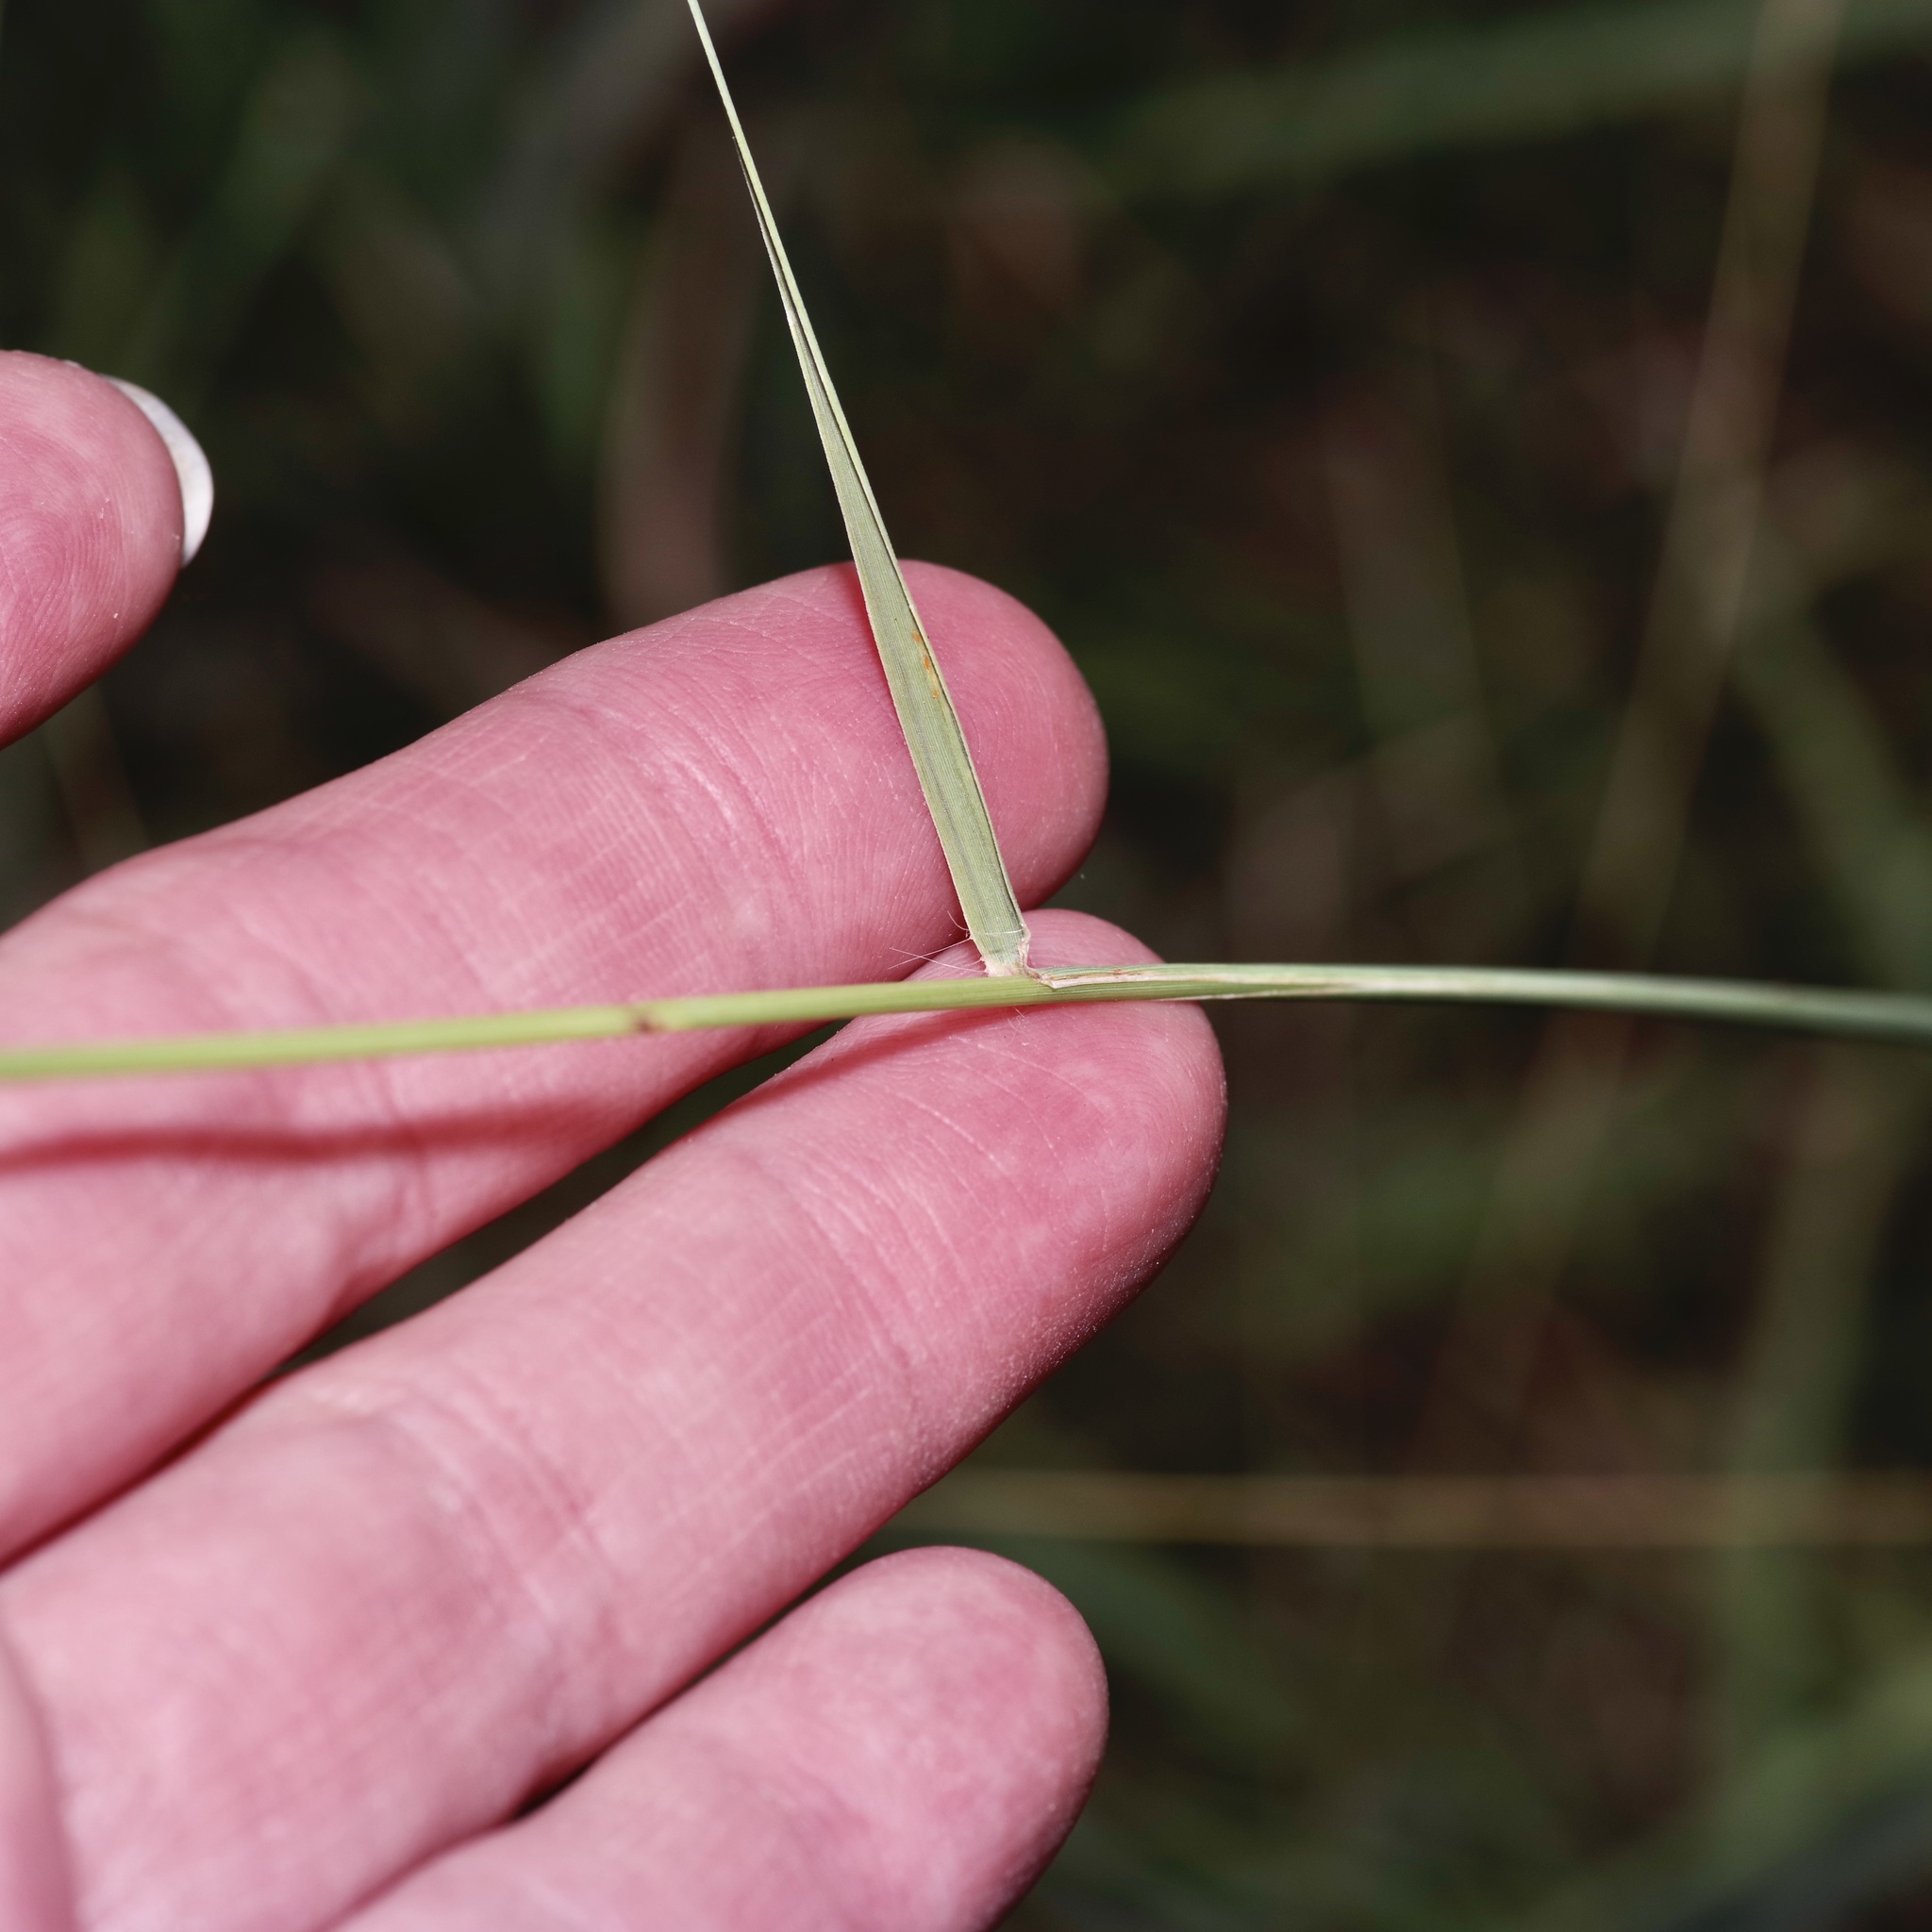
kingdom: Plantae
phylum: Tracheophyta
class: Liliopsida
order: Poales
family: Poaceae
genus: Bouteloua
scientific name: Bouteloua curtipendula
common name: Side-oats grama
